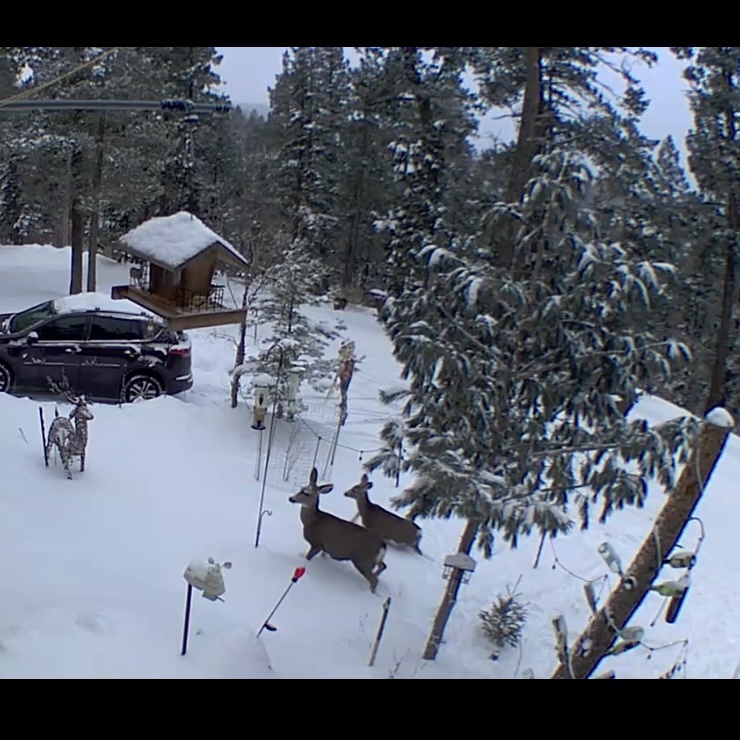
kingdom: Animalia
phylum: Chordata
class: Mammalia
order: Artiodactyla
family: Cervidae
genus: Odocoileus
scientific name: Odocoileus hemionus
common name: Mule deer
